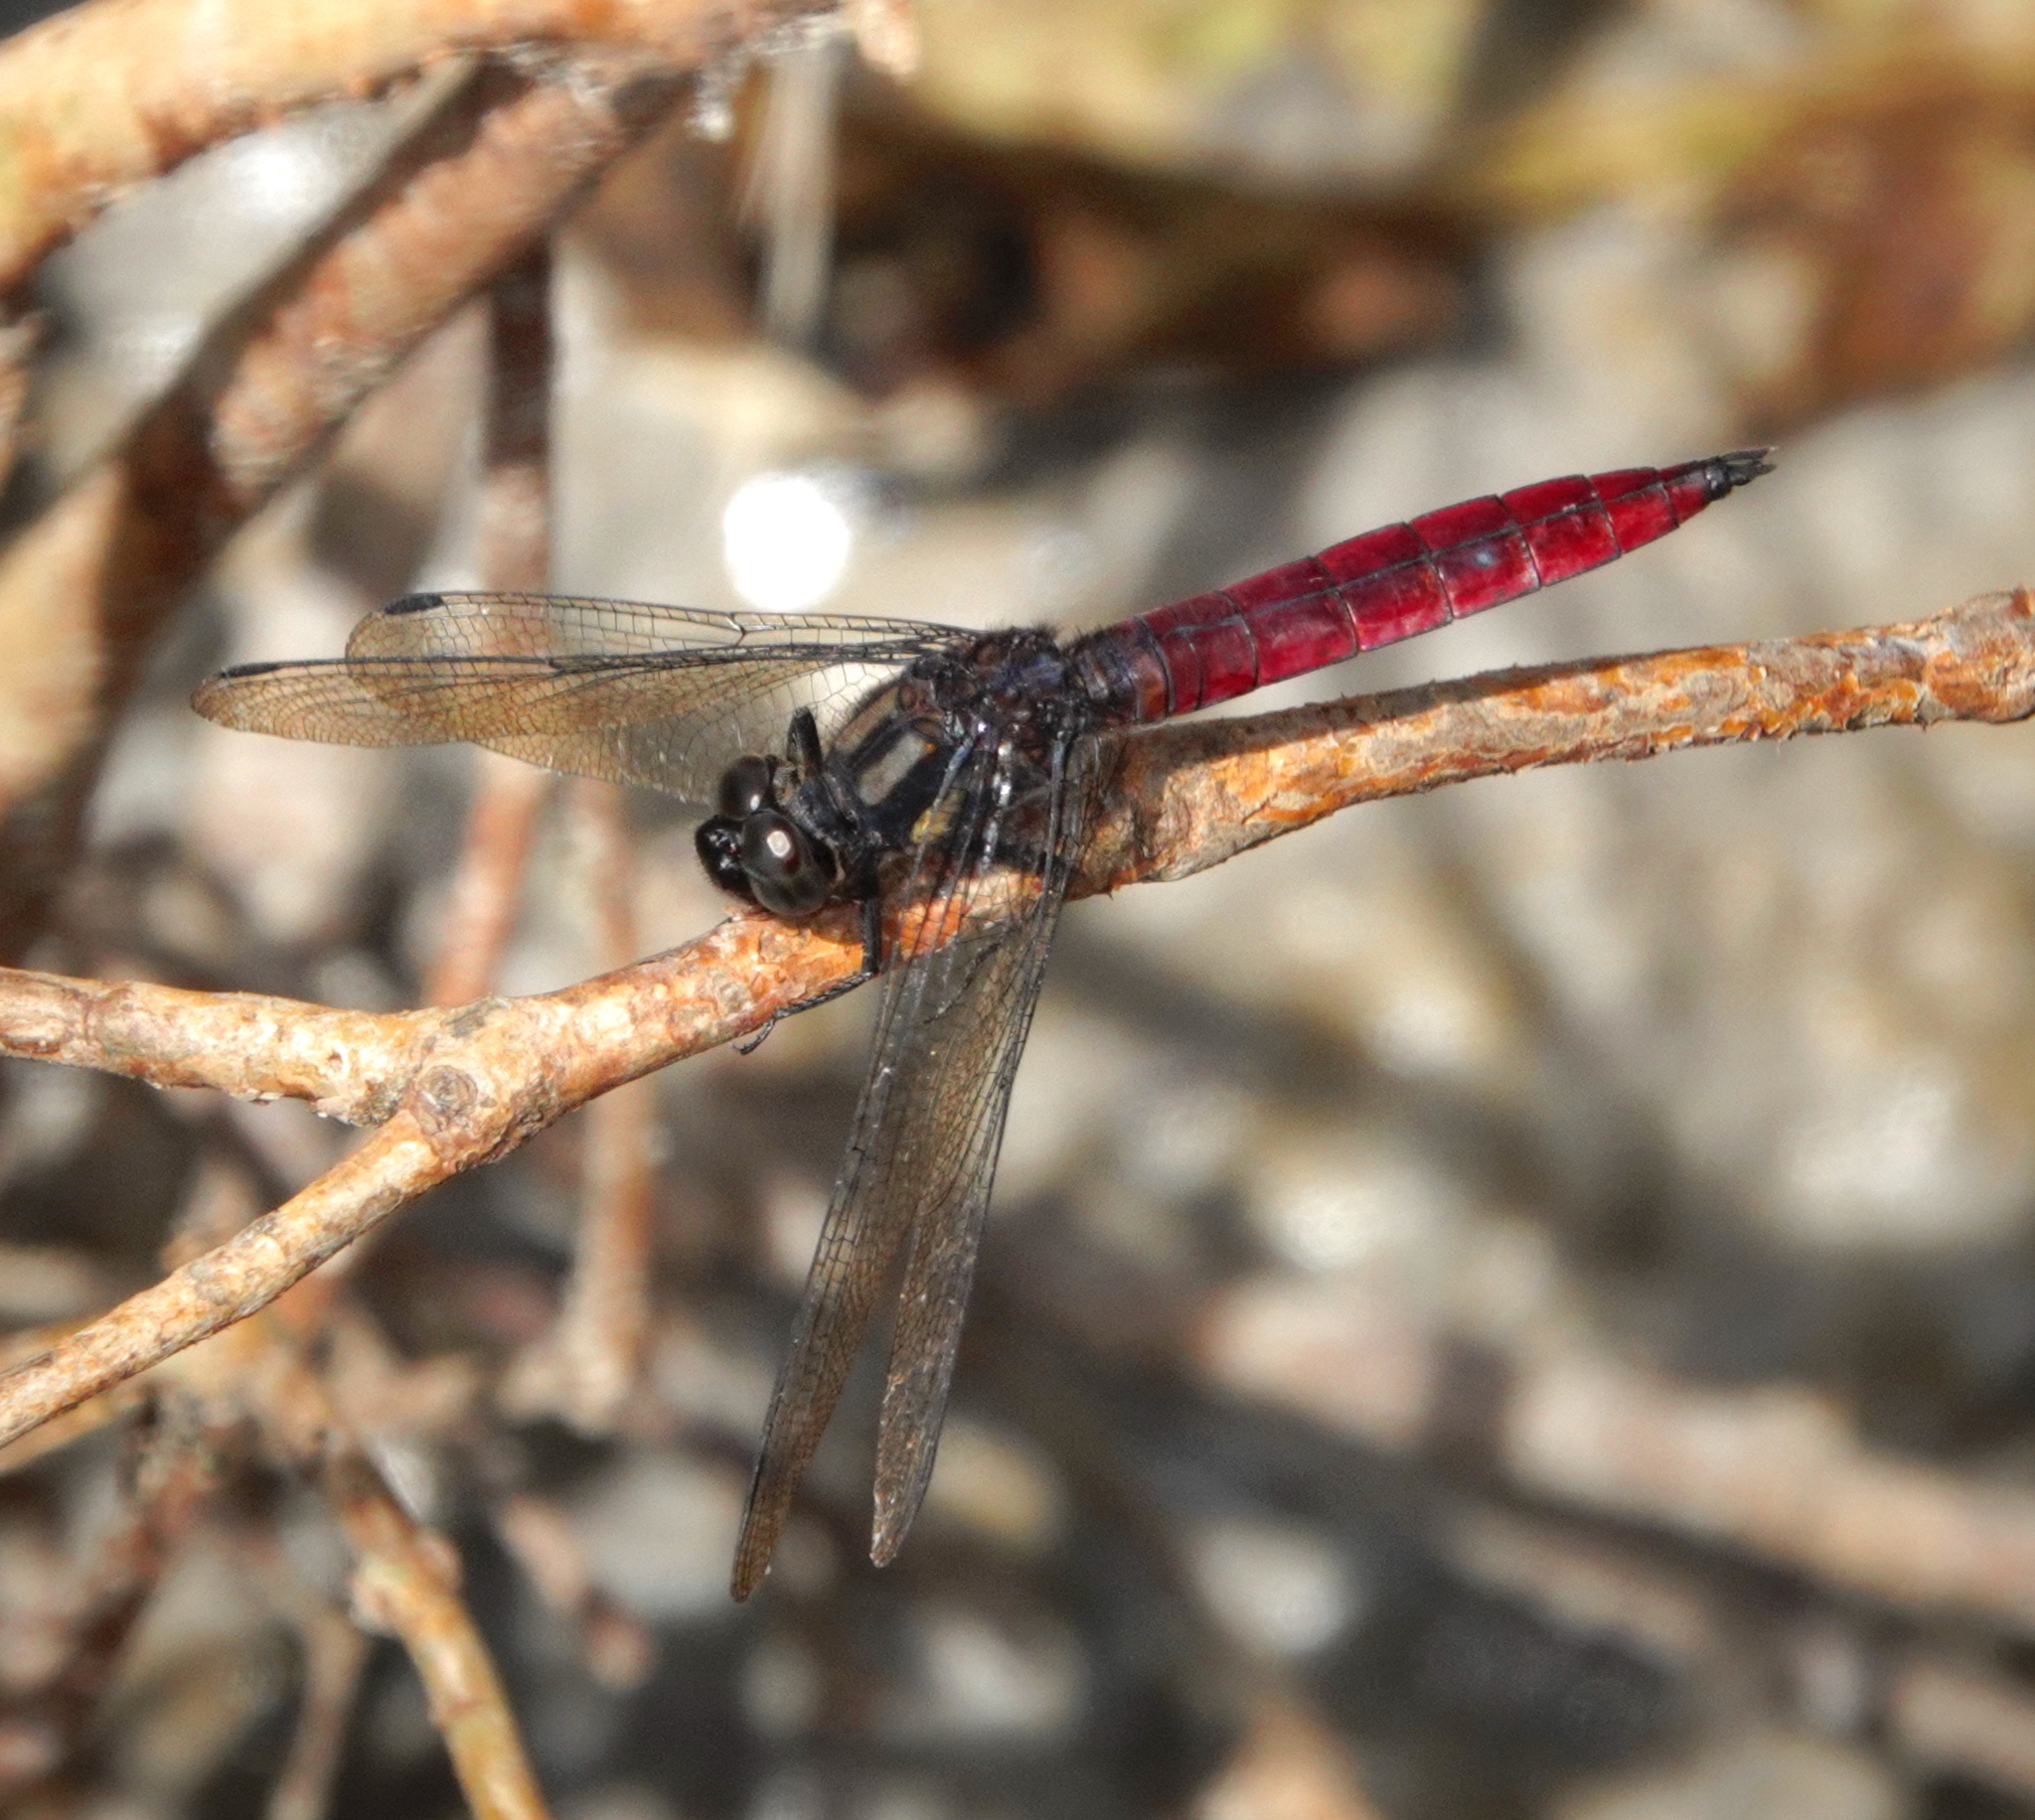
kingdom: Animalia
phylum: Arthropoda
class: Insecta
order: Odonata
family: Libellulidae
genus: Orthetrum
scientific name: Orthetrum villosovittatum
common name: Firery skimmer
